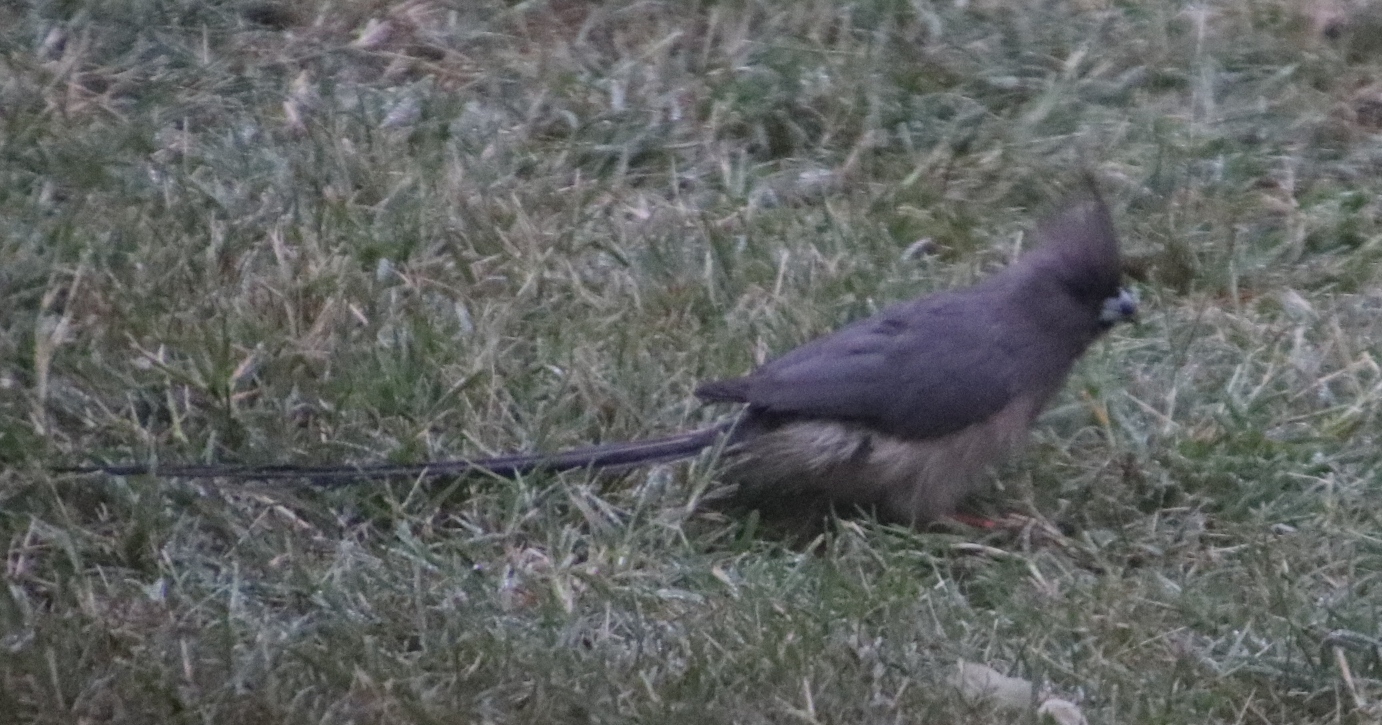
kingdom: Animalia
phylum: Chordata
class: Aves
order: Coliiformes
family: Coliidae
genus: Colius
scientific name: Colius colius
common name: White-backed mousebird
